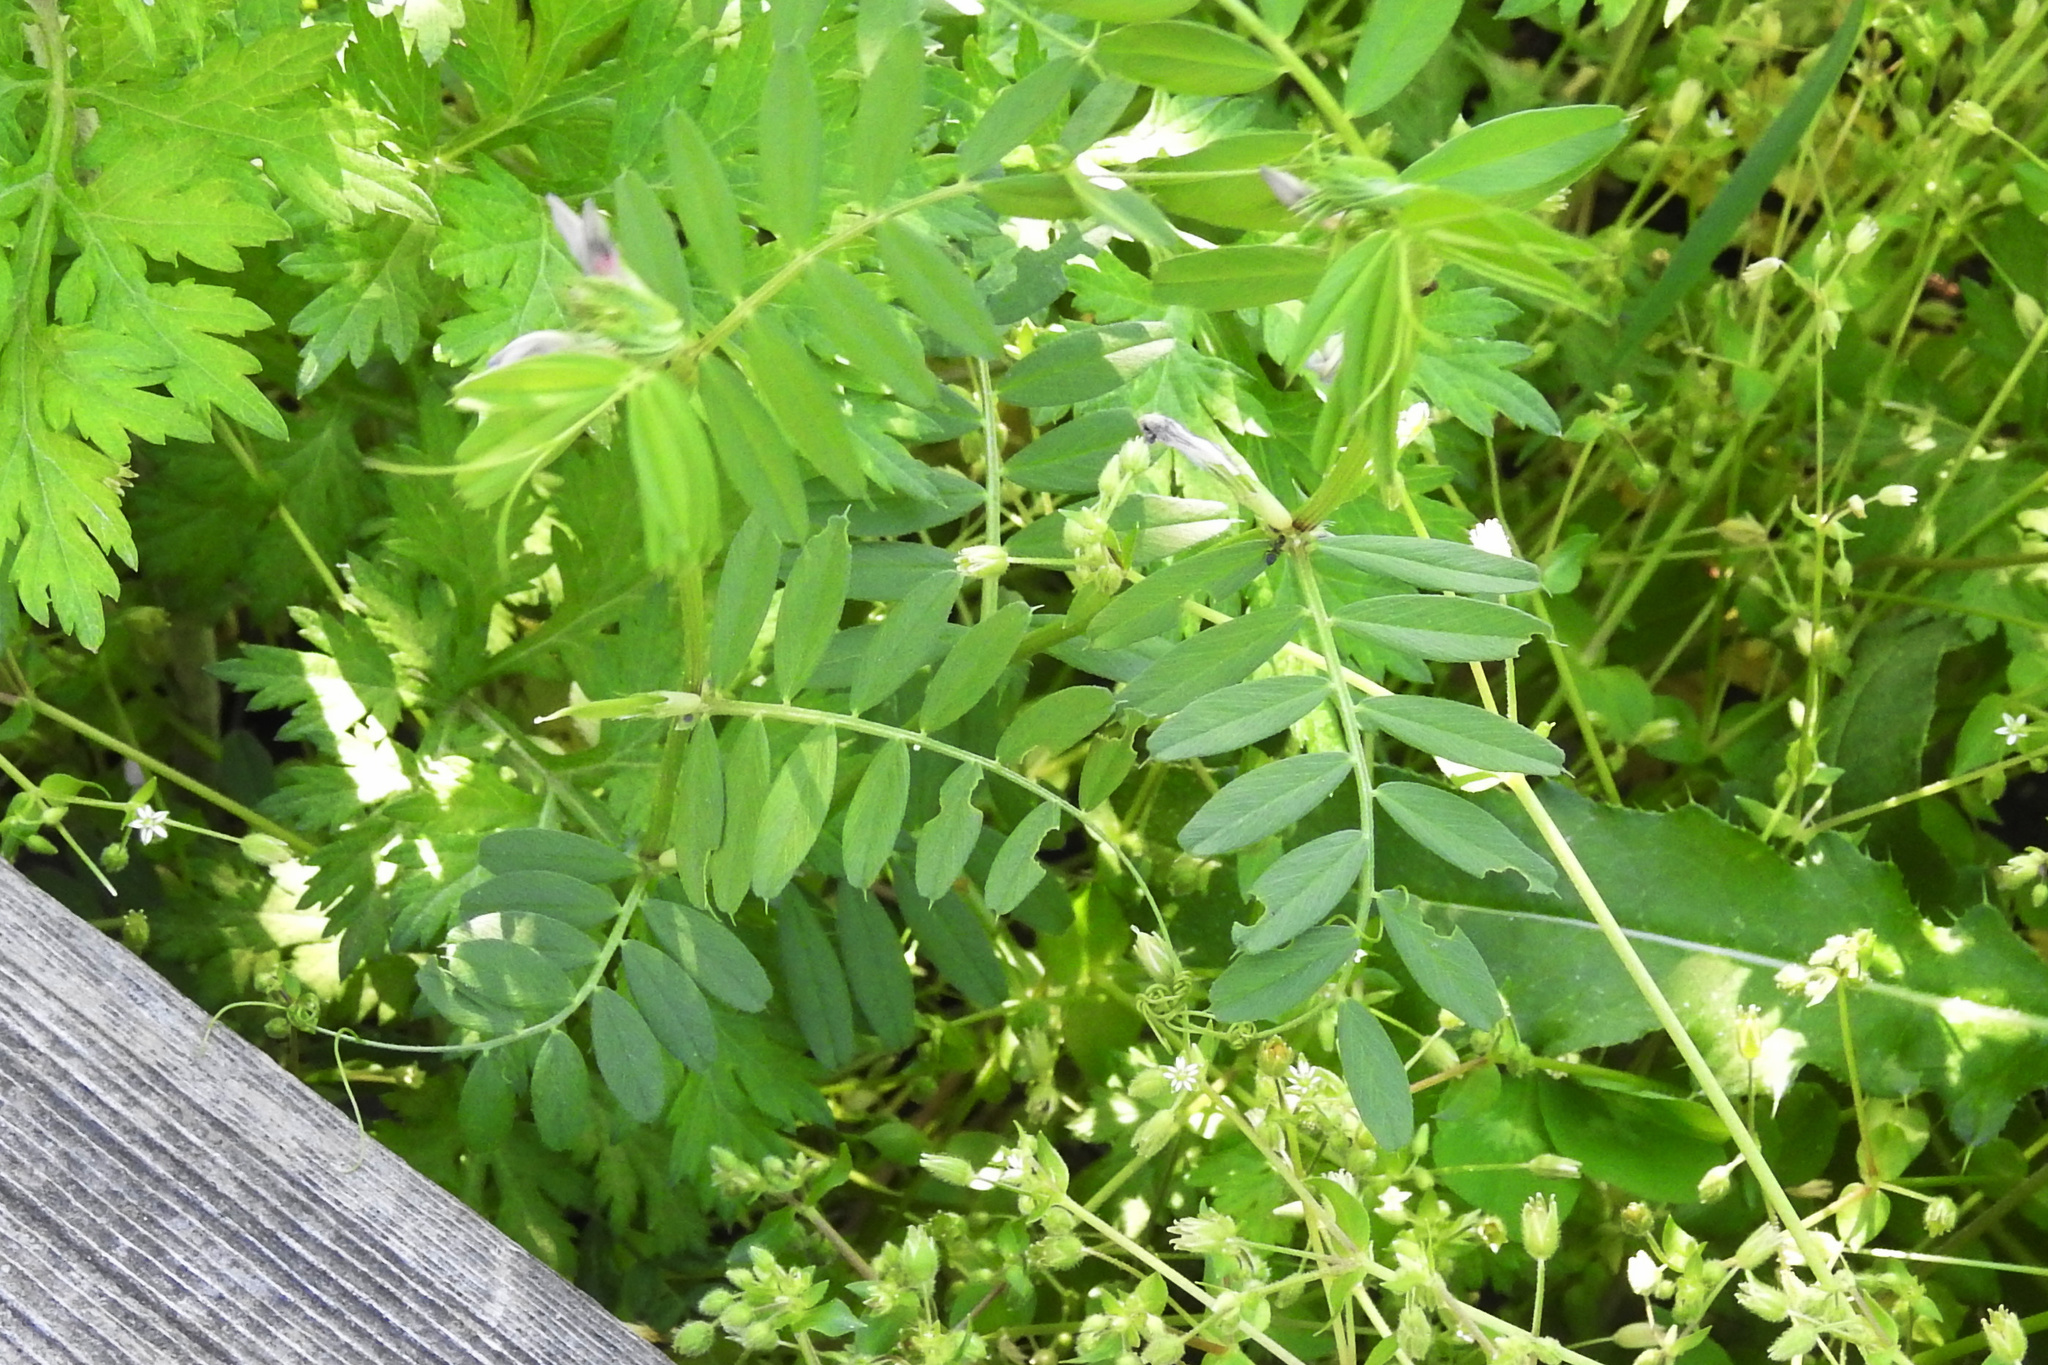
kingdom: Plantae
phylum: Tracheophyta
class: Magnoliopsida
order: Fabales
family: Fabaceae
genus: Vicia
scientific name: Vicia sativa
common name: Garden vetch
